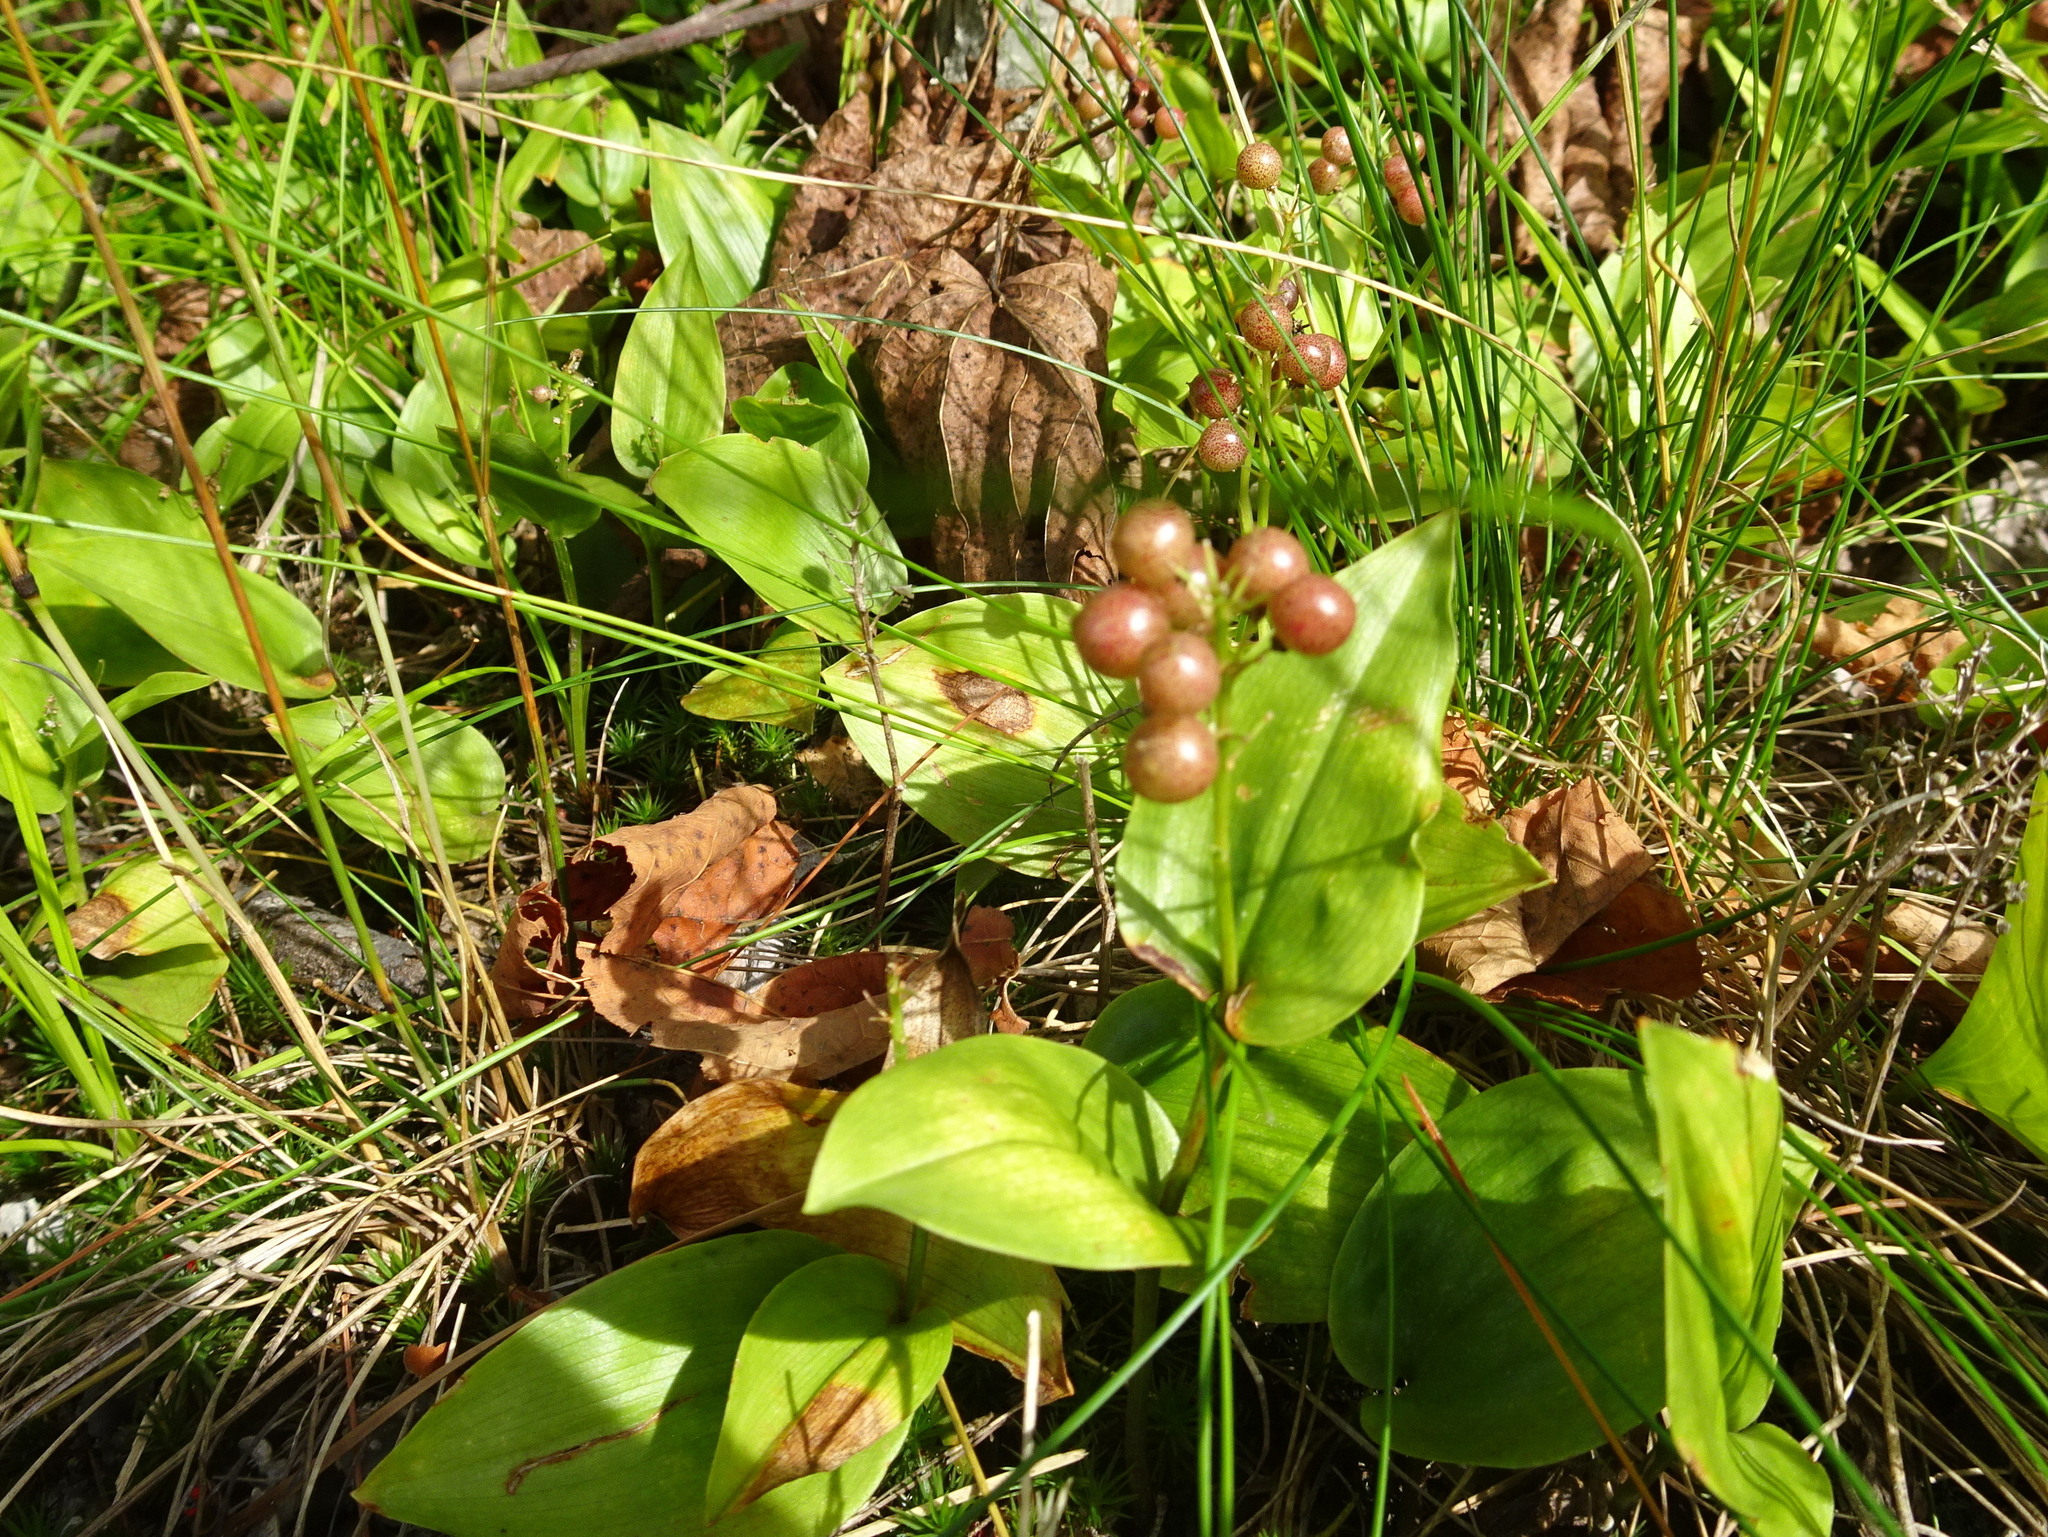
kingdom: Plantae
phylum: Tracheophyta
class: Liliopsida
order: Asparagales
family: Asparagaceae
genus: Maianthemum
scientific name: Maianthemum canadense
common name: False lily-of-the-valley
